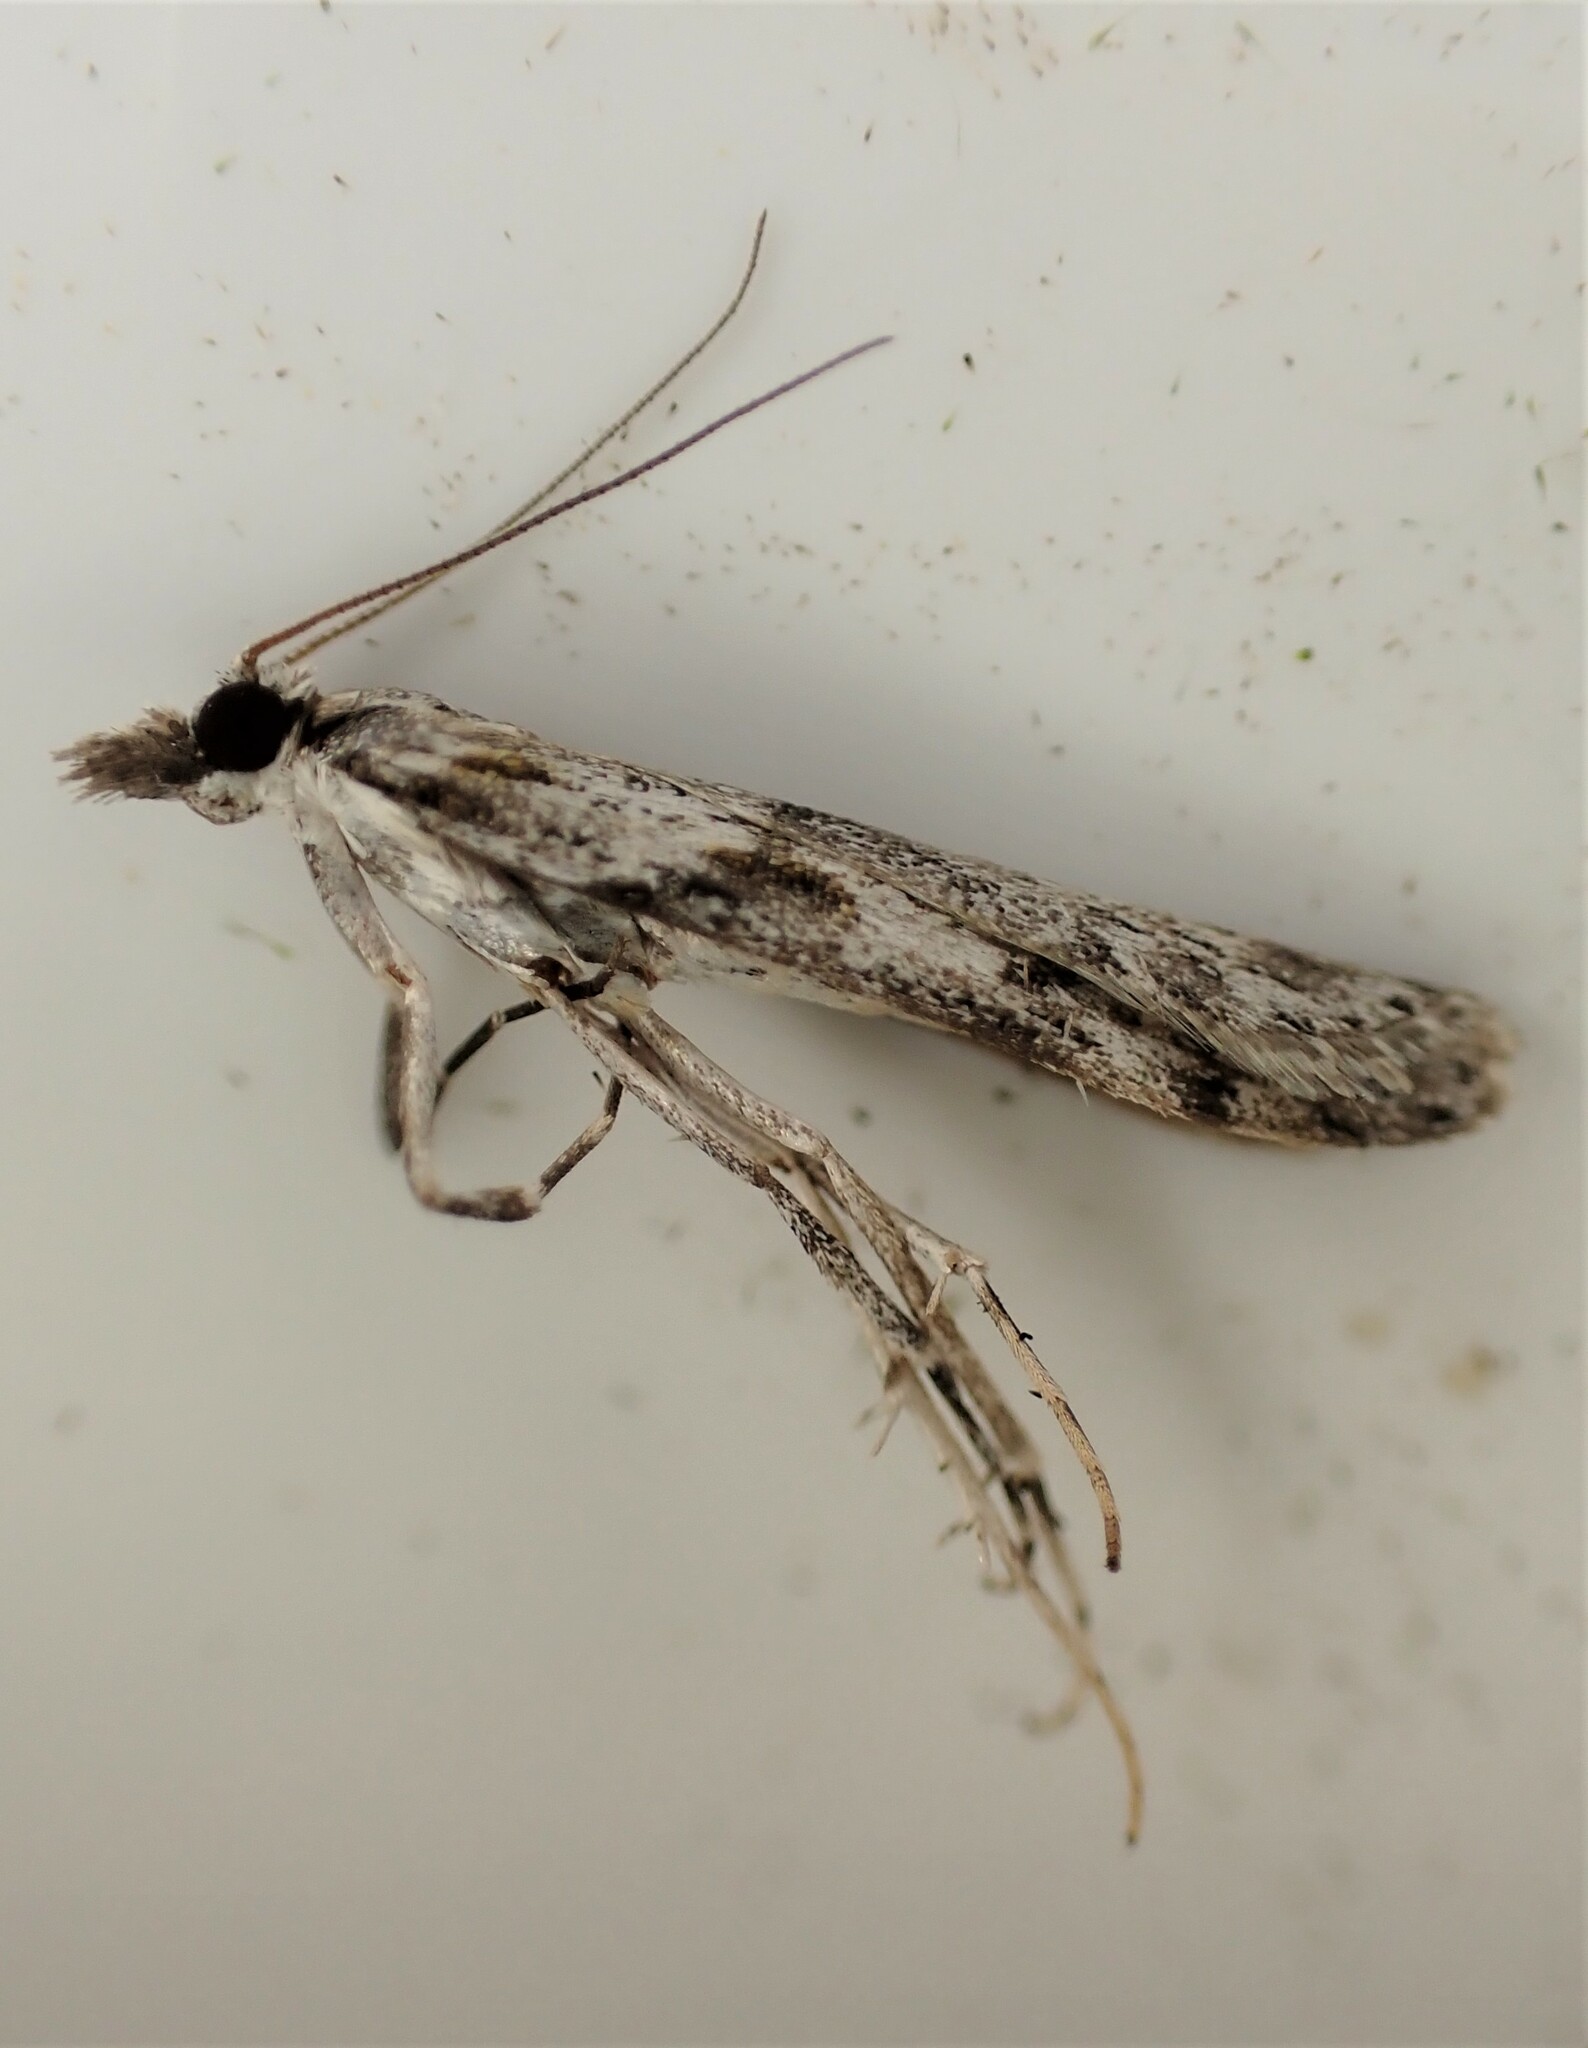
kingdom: Animalia
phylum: Arthropoda
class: Insecta
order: Lepidoptera
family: Crambidae
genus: Scoparia
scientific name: Scoparia halopis
